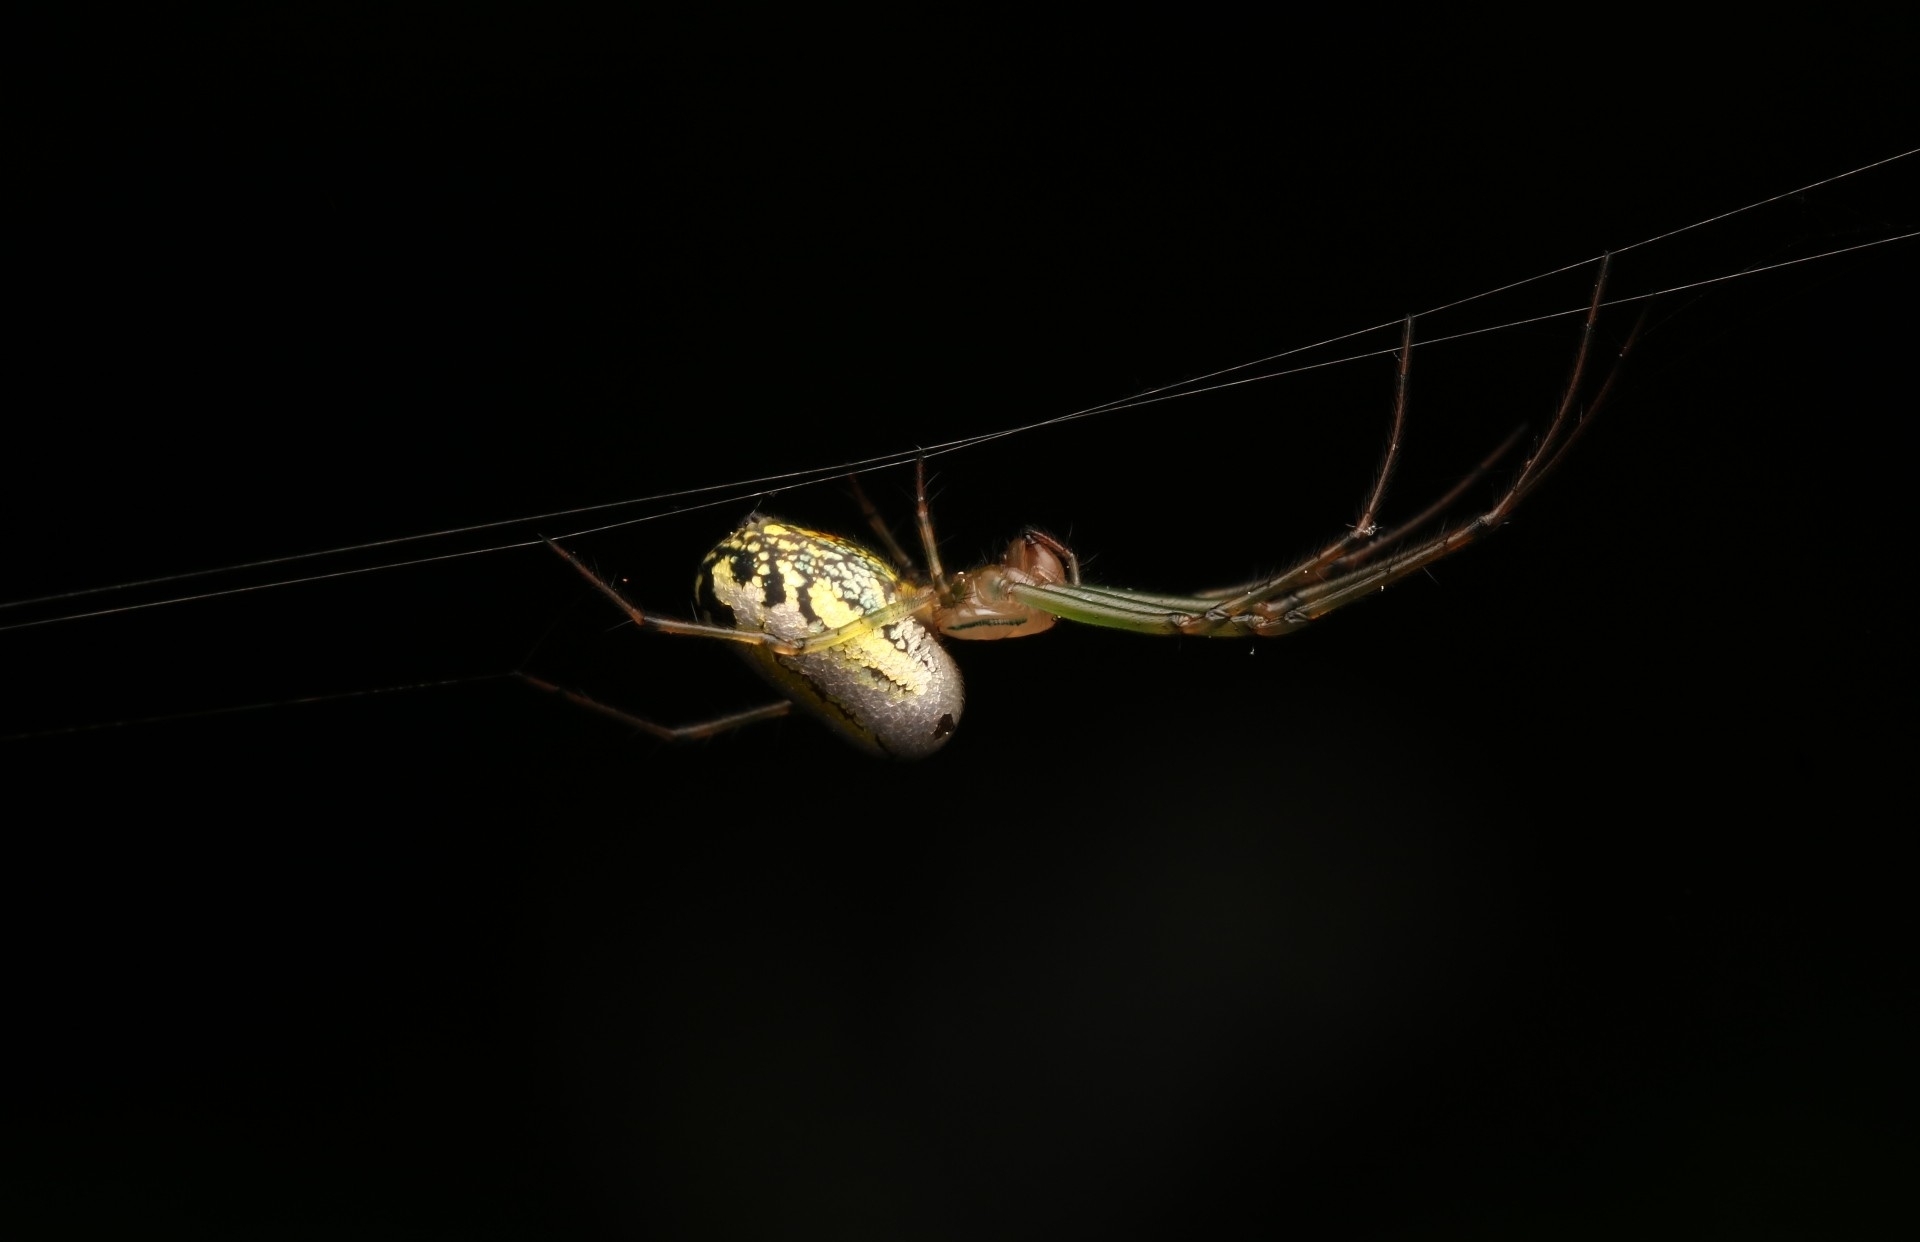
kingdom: Animalia
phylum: Arthropoda
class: Arachnida
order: Araneae
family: Tetragnathidae
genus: Leucauge
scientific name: Leucauge venusta
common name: Longjawed orb weavers
